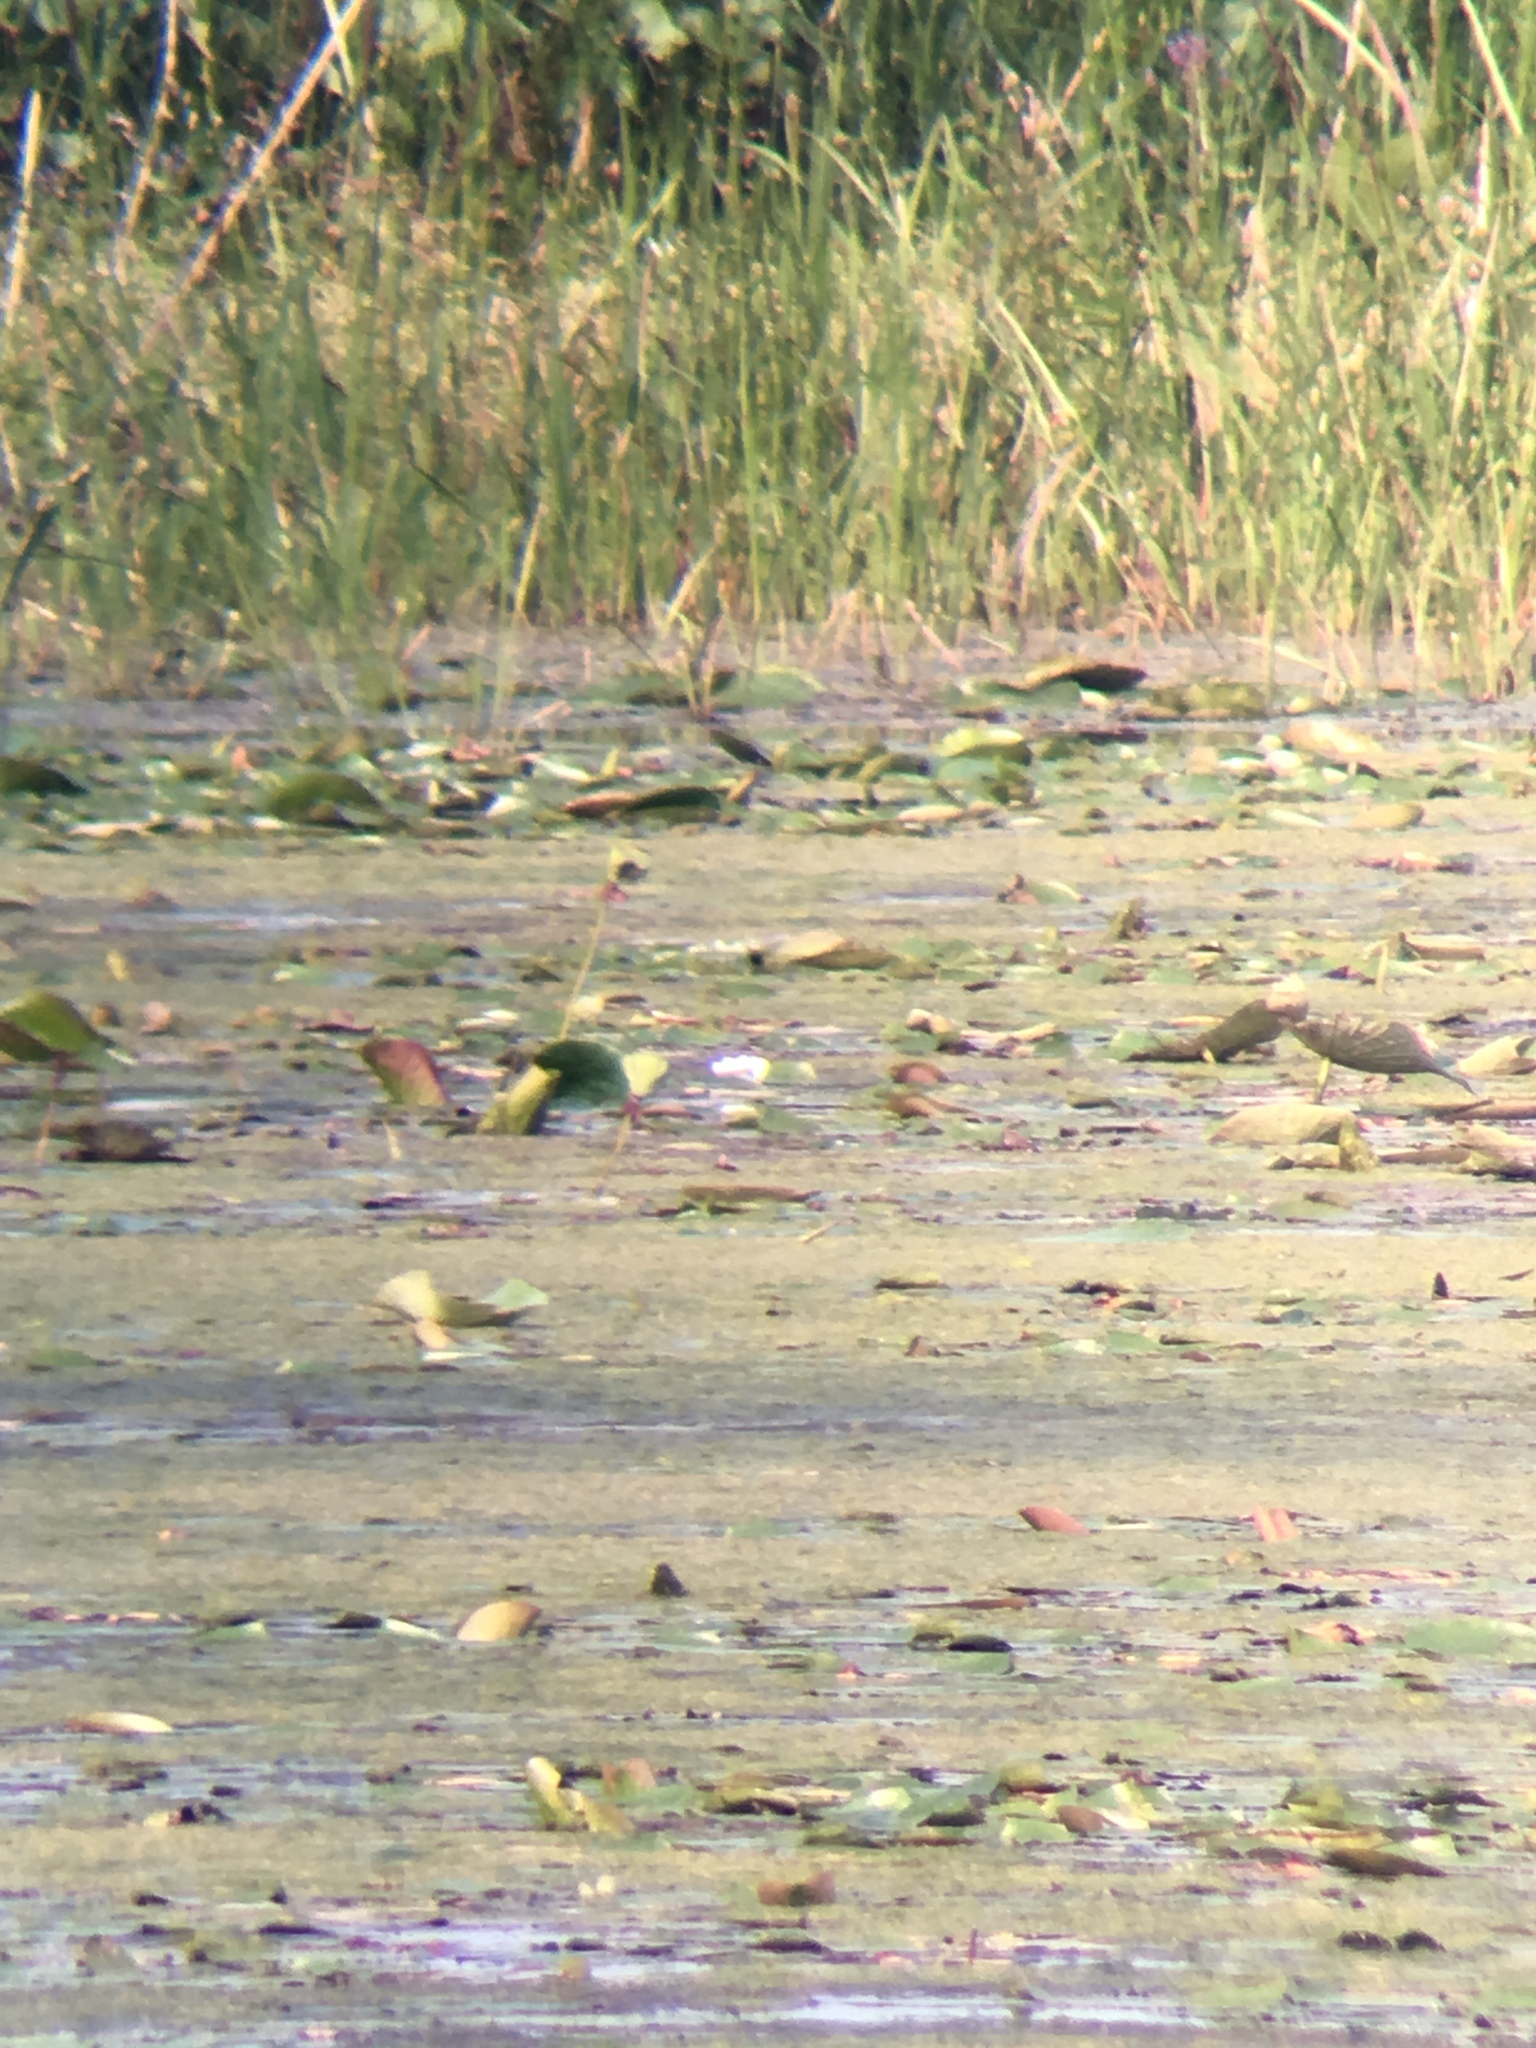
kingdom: Plantae
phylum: Tracheophyta
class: Magnoliopsida
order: Proteales
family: Nelumbonaceae
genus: Nelumbo
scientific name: Nelumbo lutea
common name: American lotus
